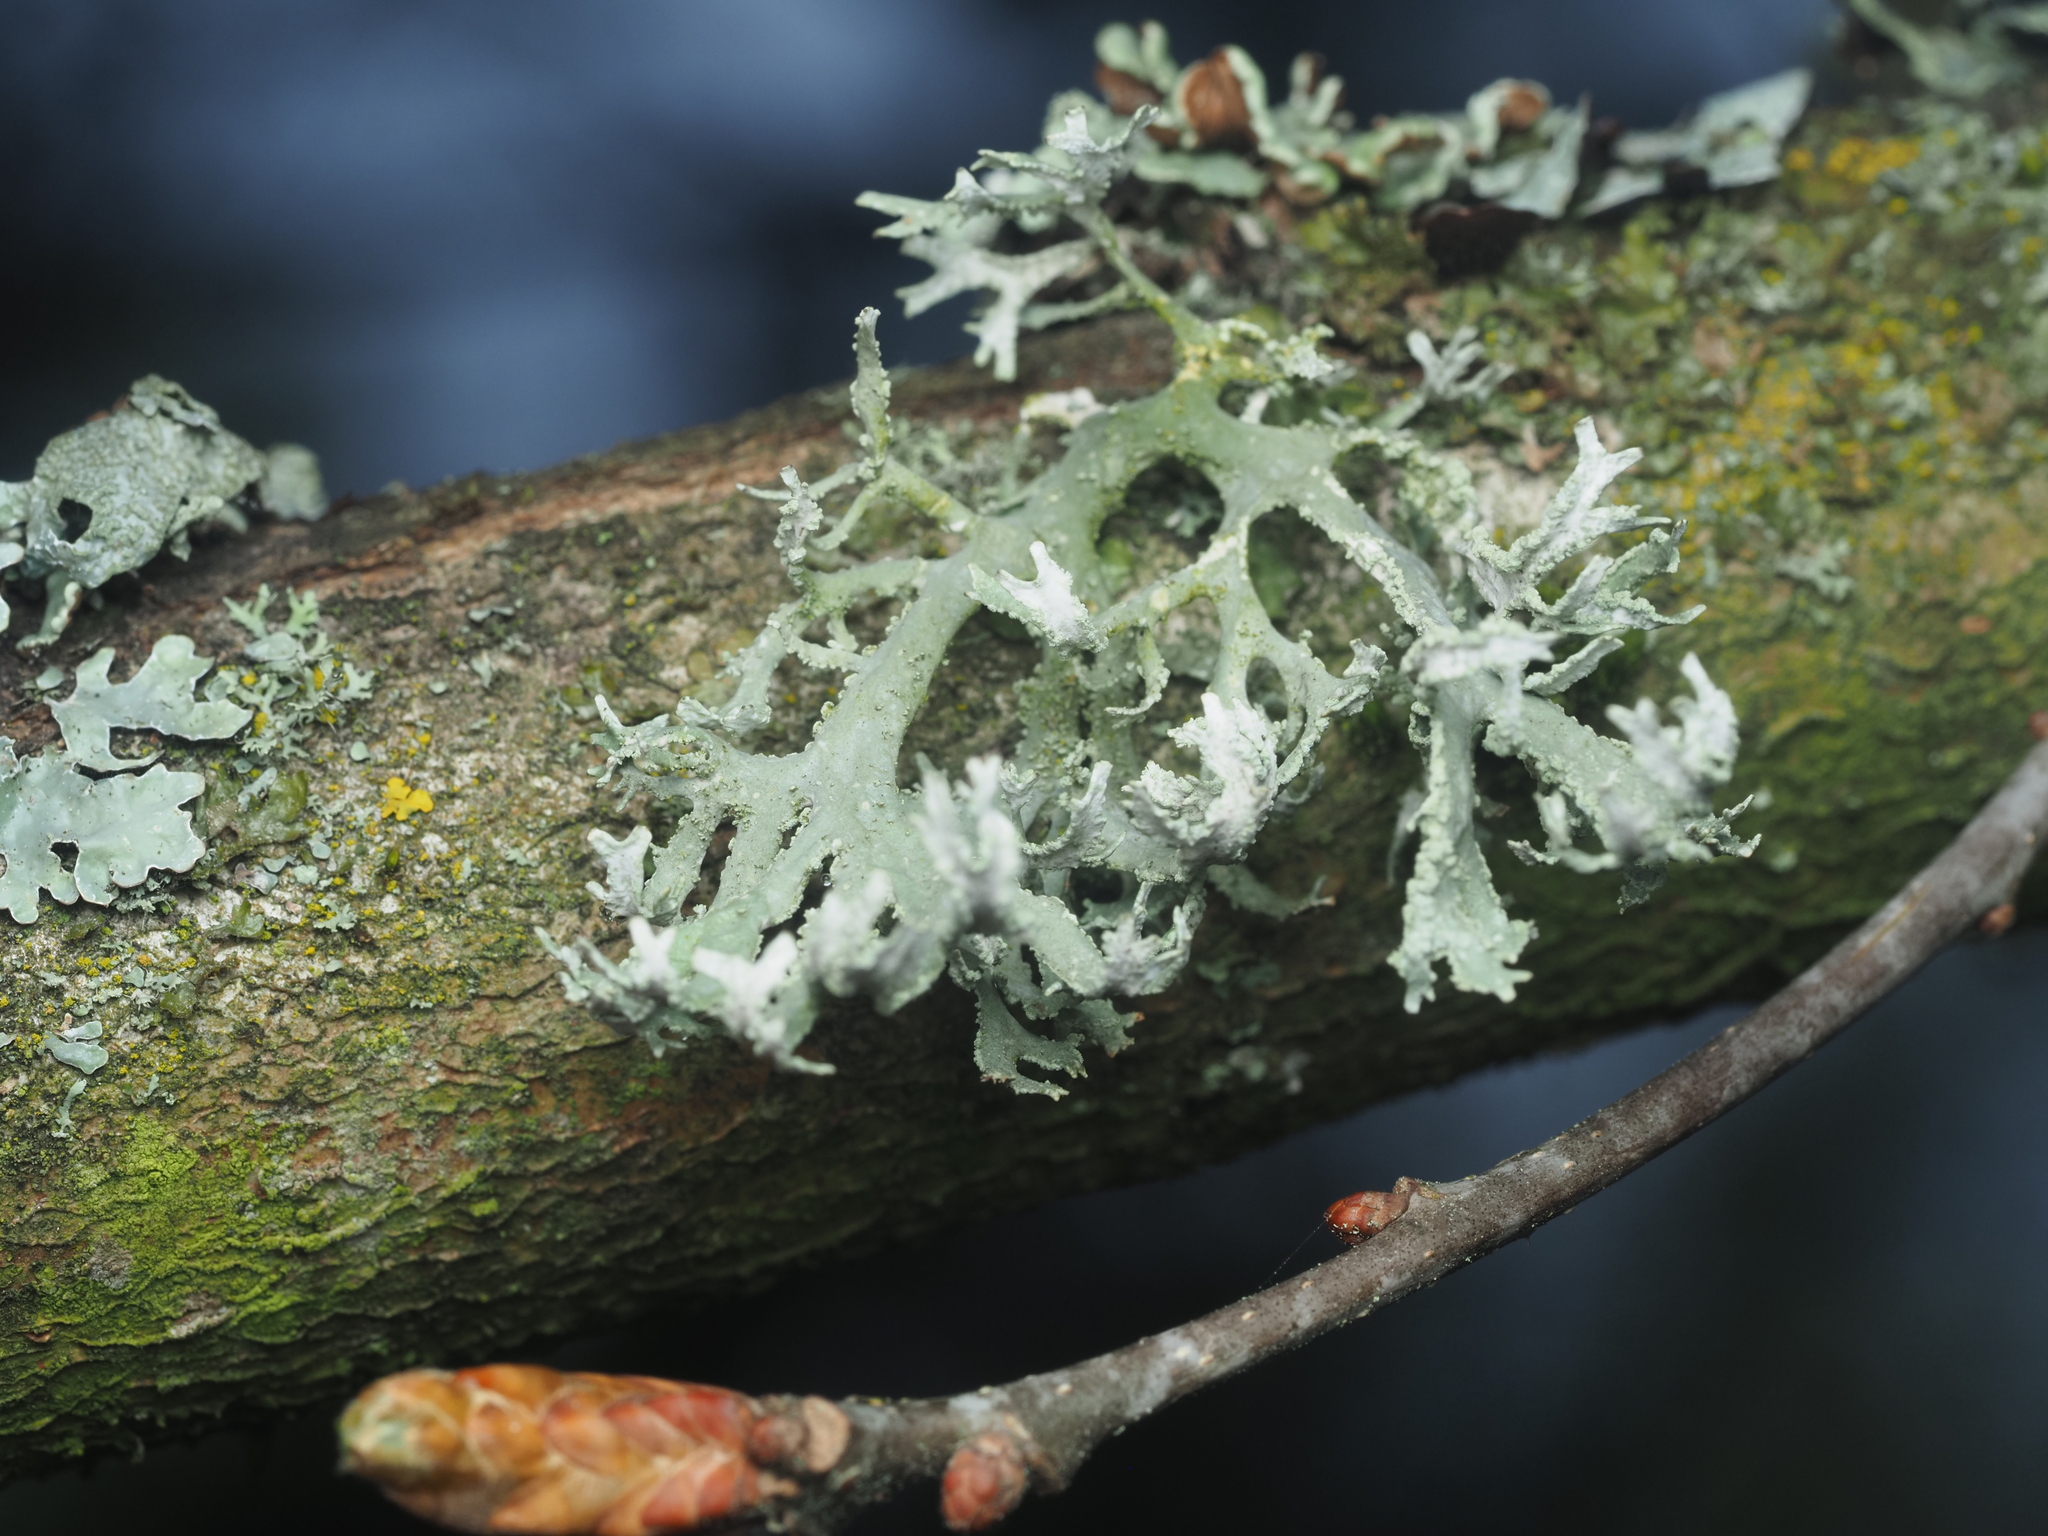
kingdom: Fungi
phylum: Ascomycota
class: Lecanoromycetes
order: Lecanorales
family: Parmeliaceae
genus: Evernia
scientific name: Evernia prunastri
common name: Oak moss
